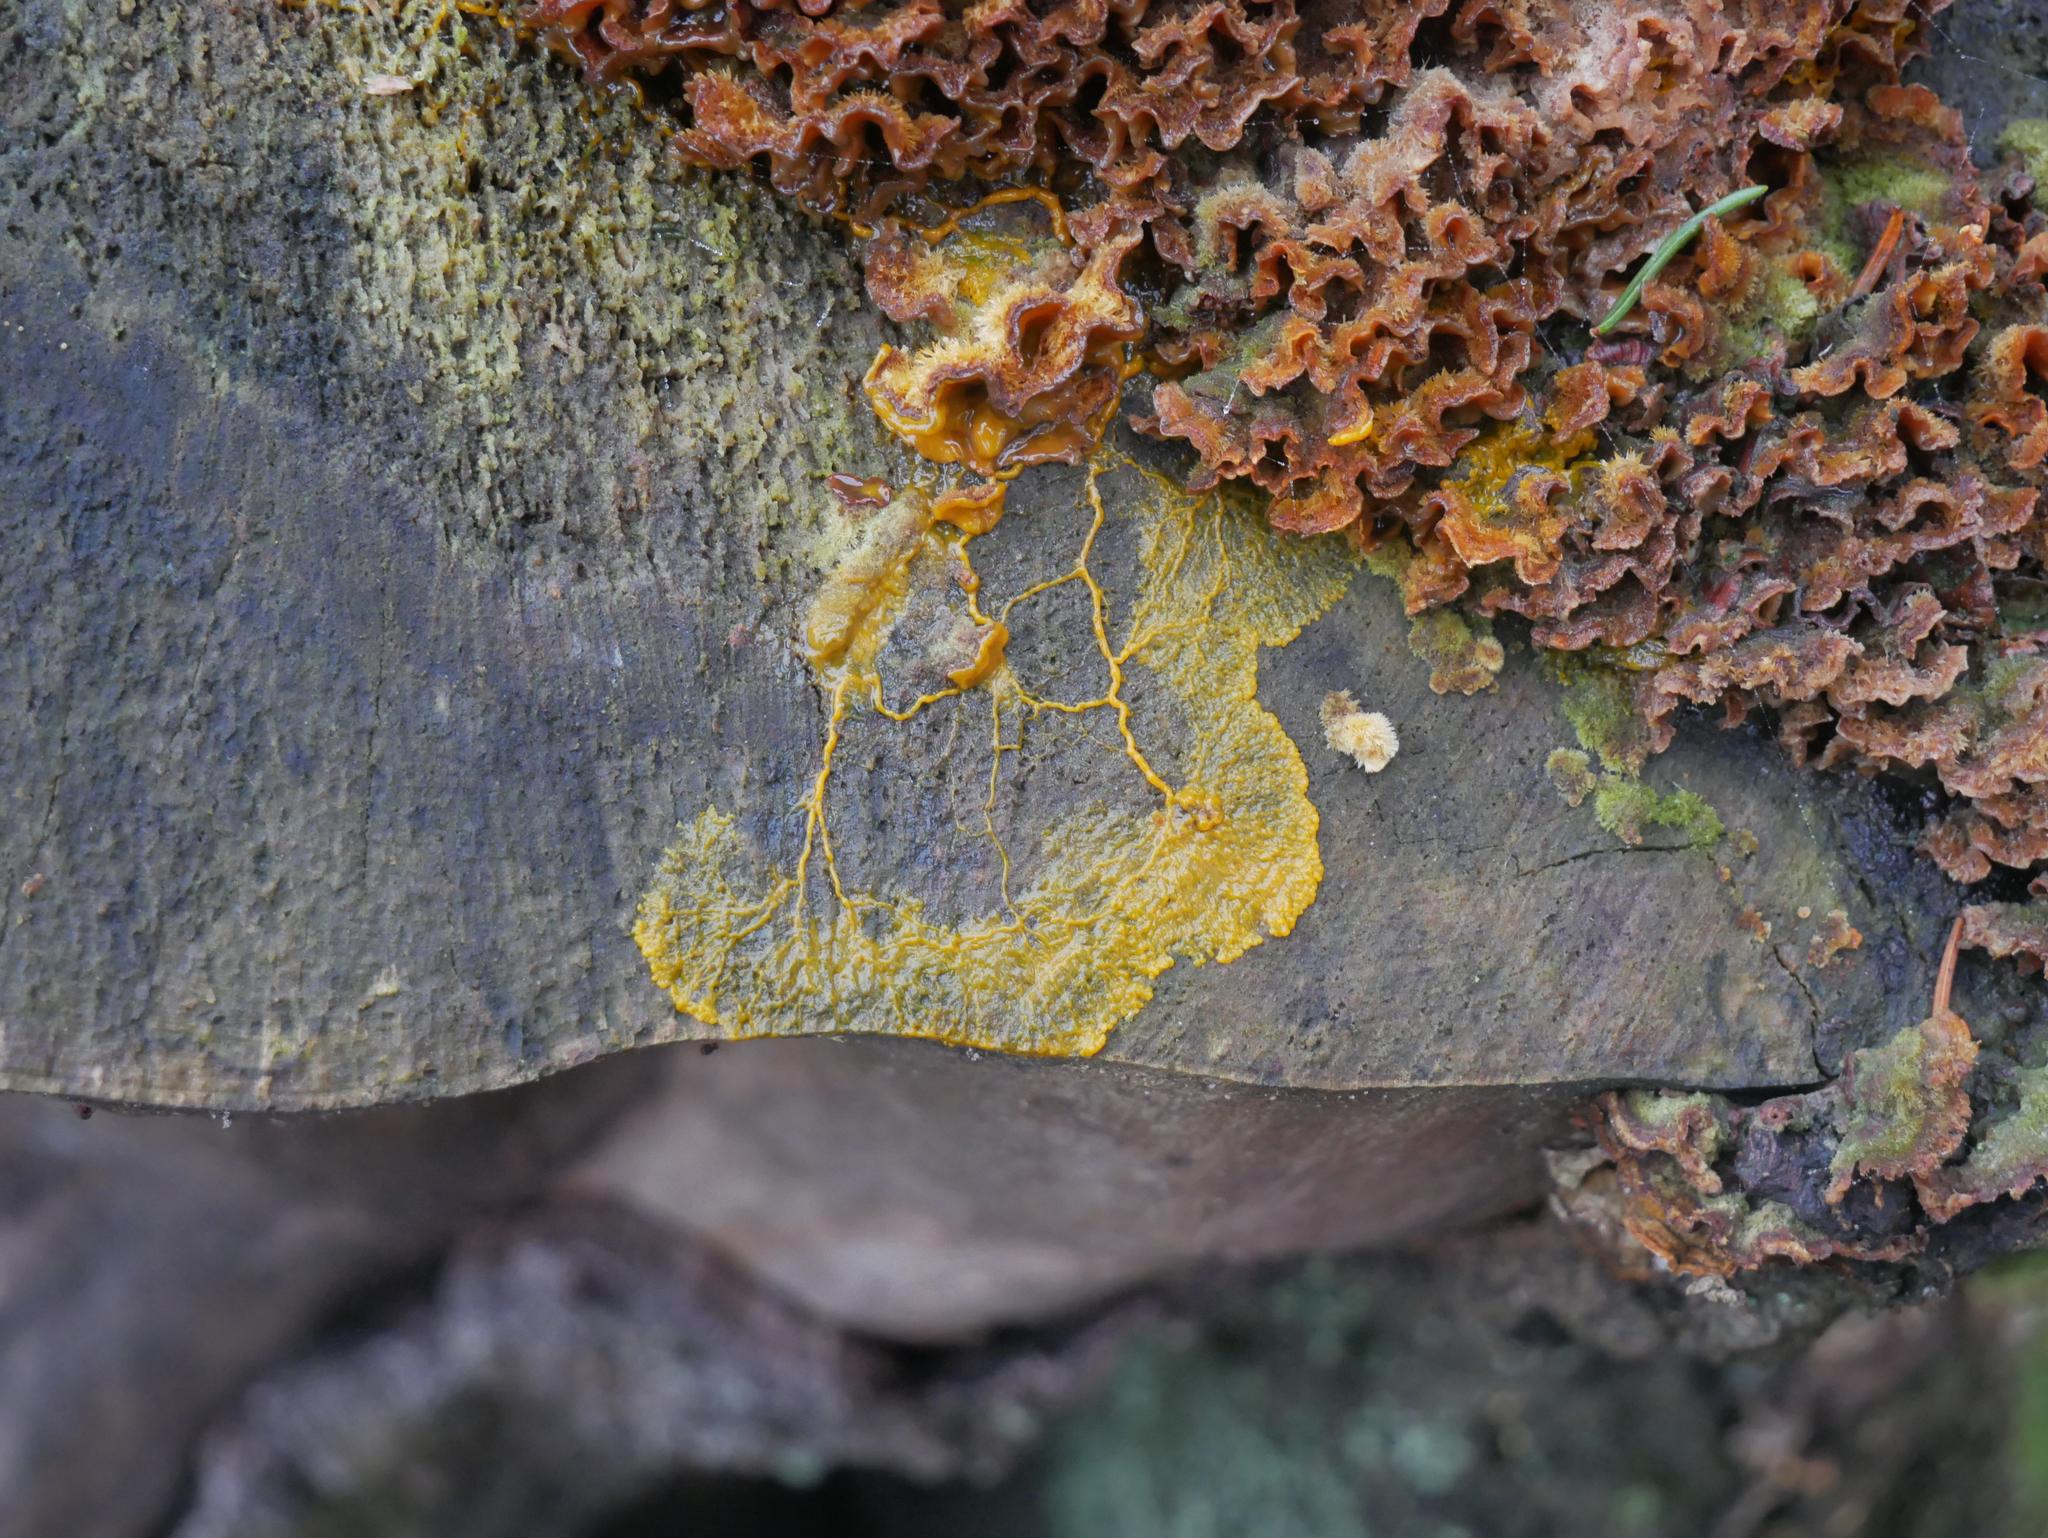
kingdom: Fungi
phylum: Basidiomycota
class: Agaricomycetes
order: Russulales
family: Stereaceae
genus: Stereum
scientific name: Stereum hirsutum
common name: Hairy curtain crust
